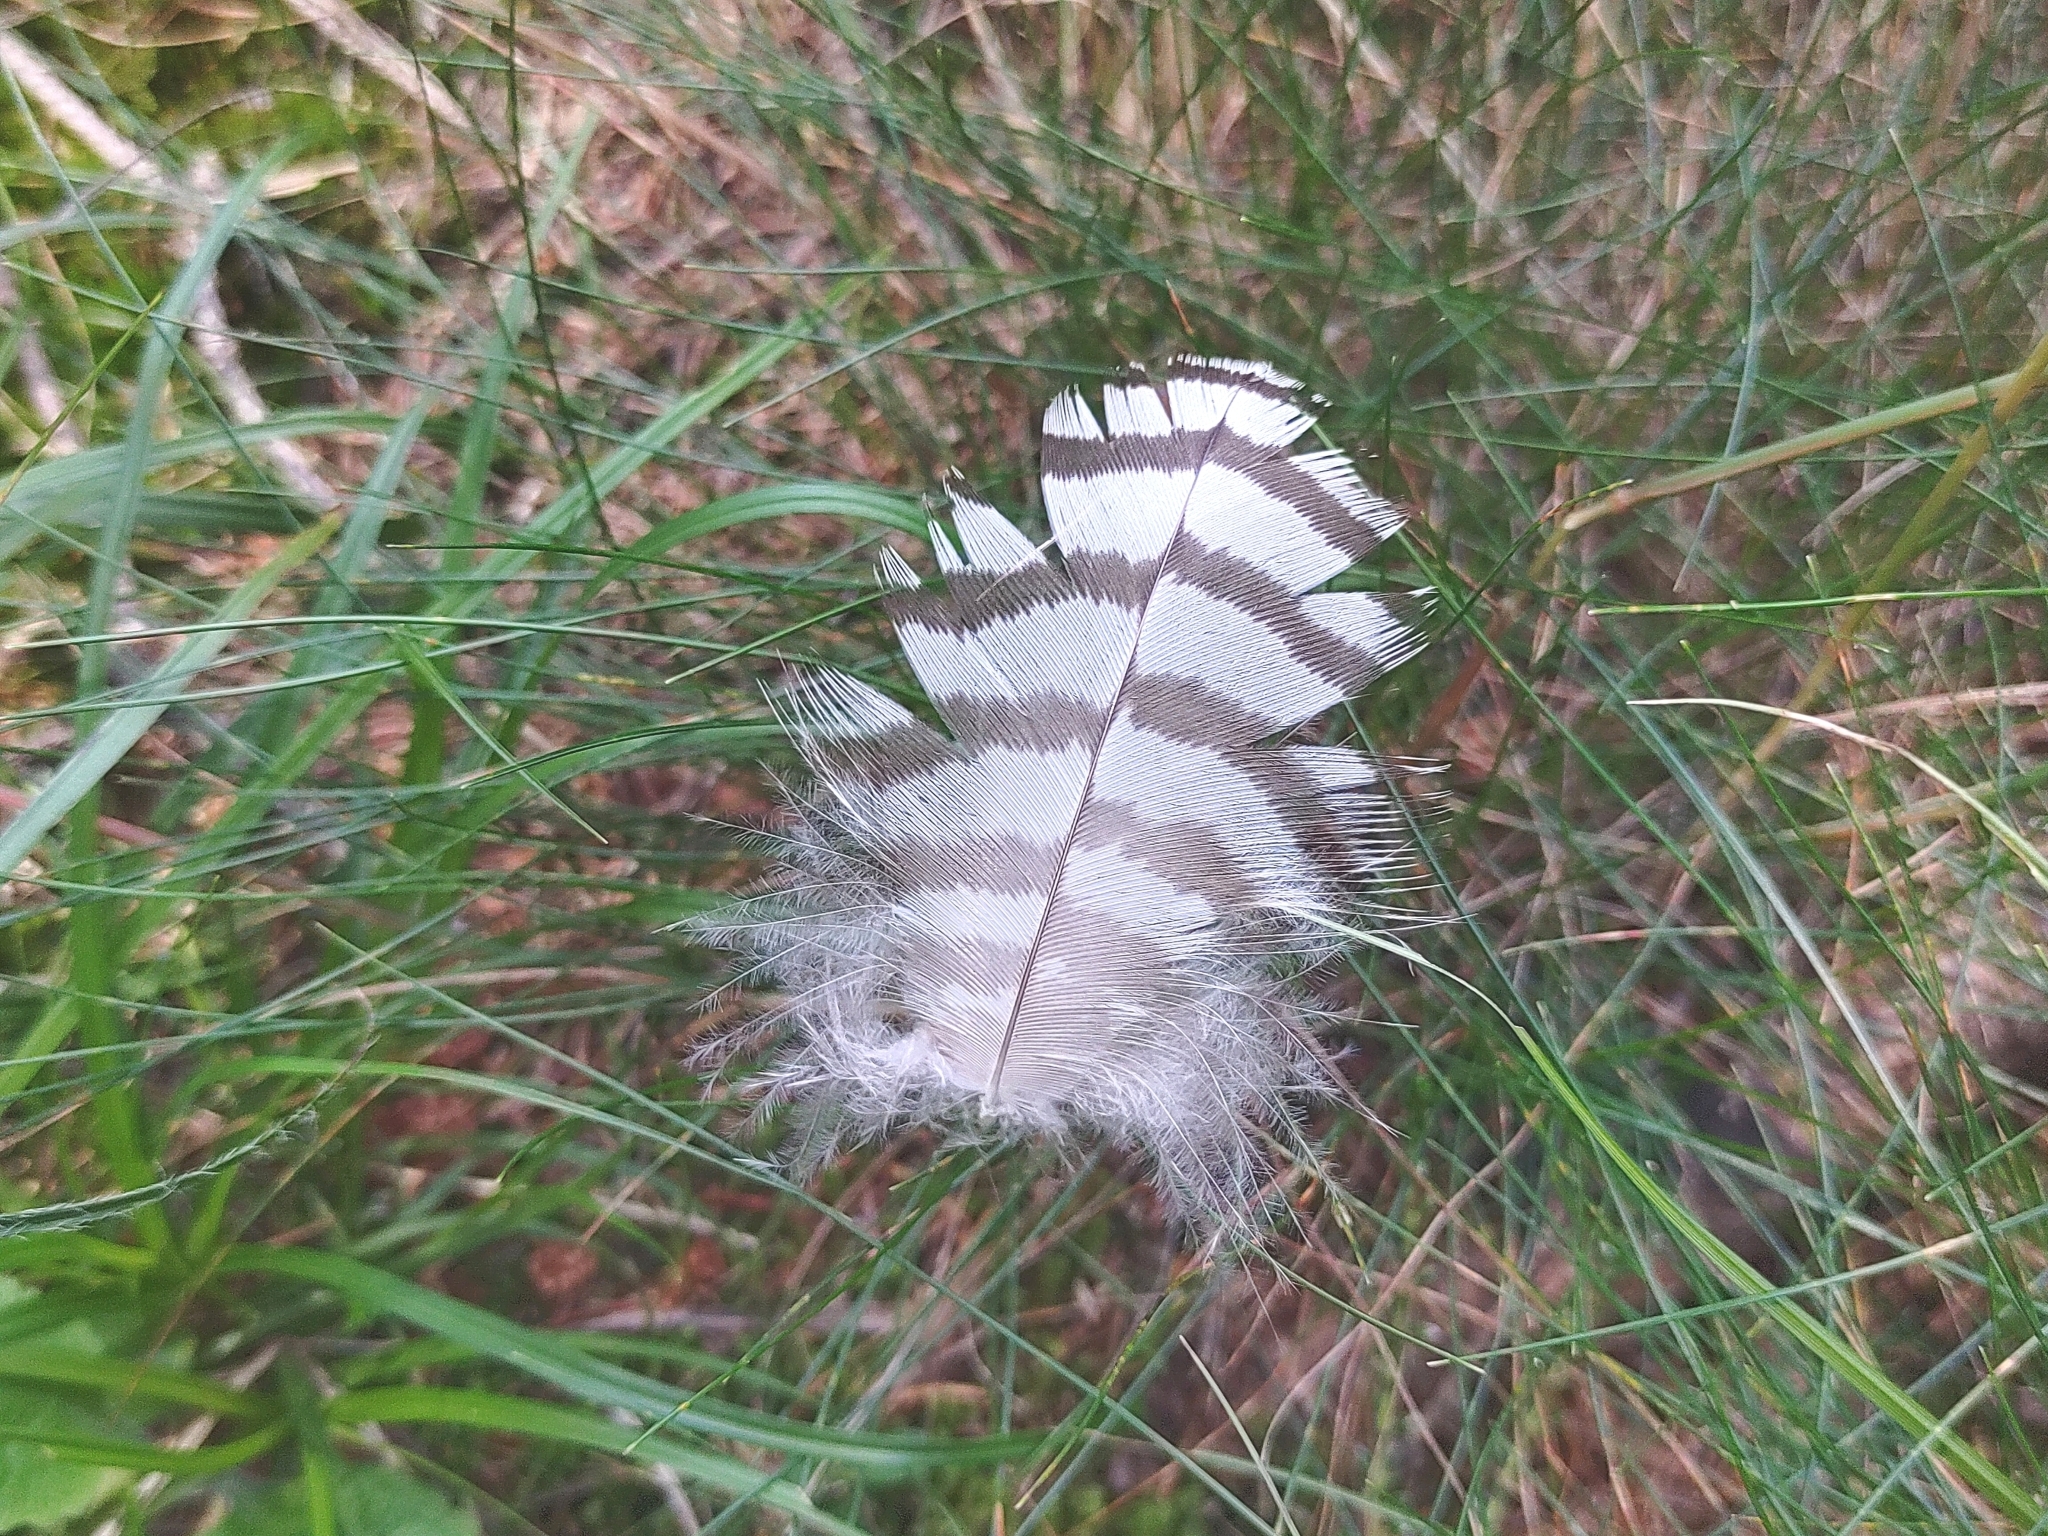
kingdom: Animalia
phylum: Chordata
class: Aves
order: Accipitriformes
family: Accipitridae
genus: Accipiter
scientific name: Accipiter
